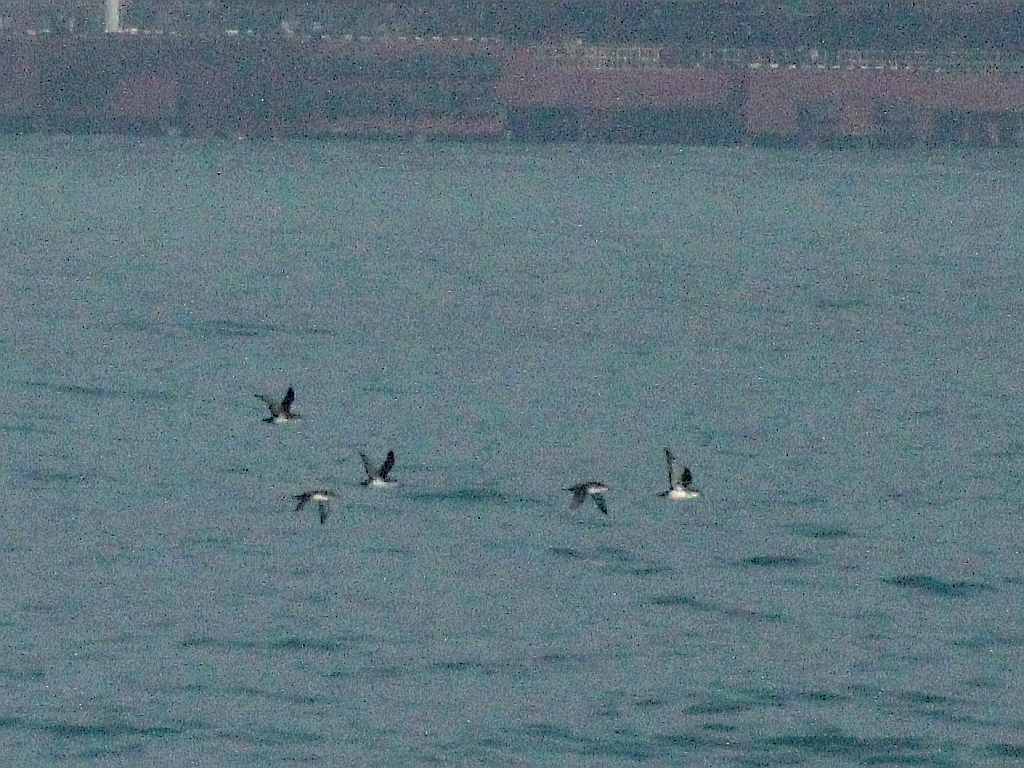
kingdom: Animalia
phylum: Chordata
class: Aves
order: Procellariiformes
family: Procellariidae
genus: Puffinus
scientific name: Puffinus yelkouan
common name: Yelkouan shearwater
